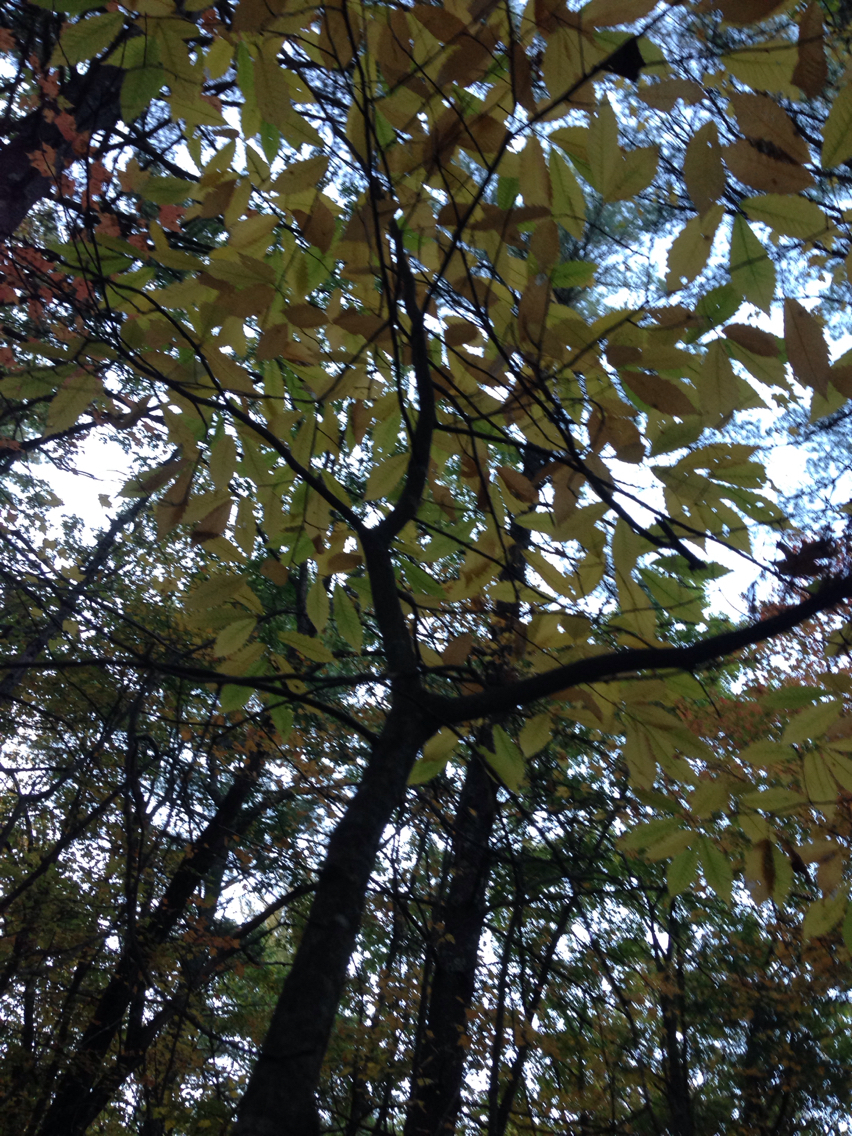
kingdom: Plantae
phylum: Tracheophyta
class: Magnoliopsida
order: Fagales
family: Fagaceae
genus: Castanea
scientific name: Castanea dentata
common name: American chestnut
